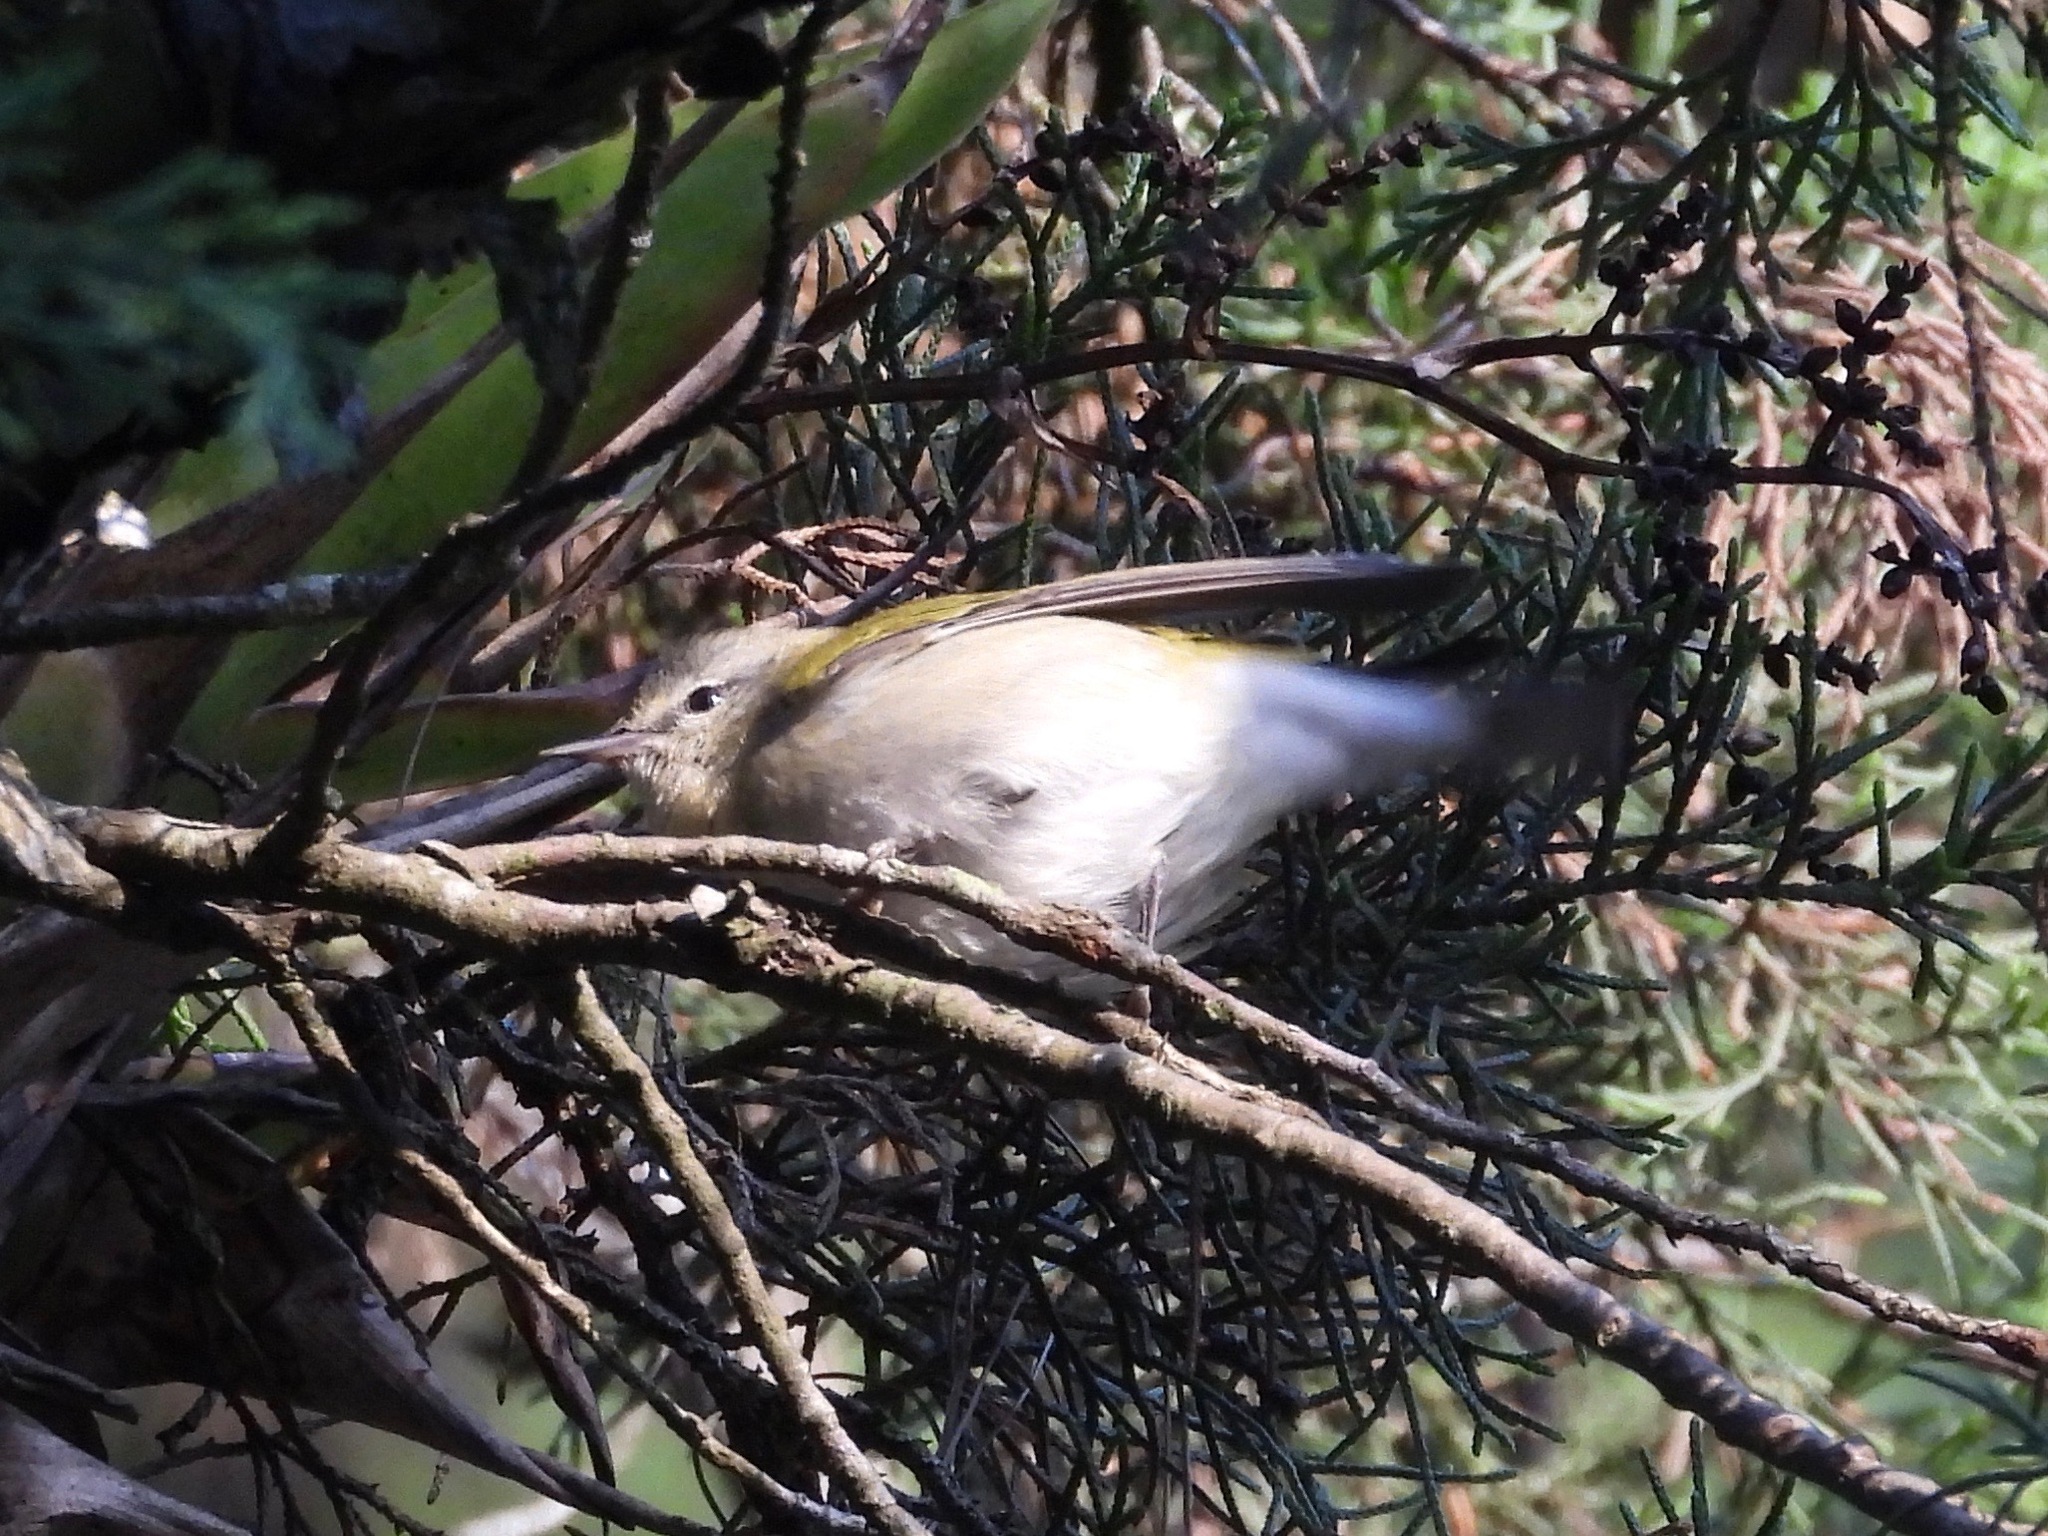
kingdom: Animalia
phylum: Chordata
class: Aves
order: Passeriformes
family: Parulidae
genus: Leiothlypis
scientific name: Leiothlypis peregrina
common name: Tennessee warbler
